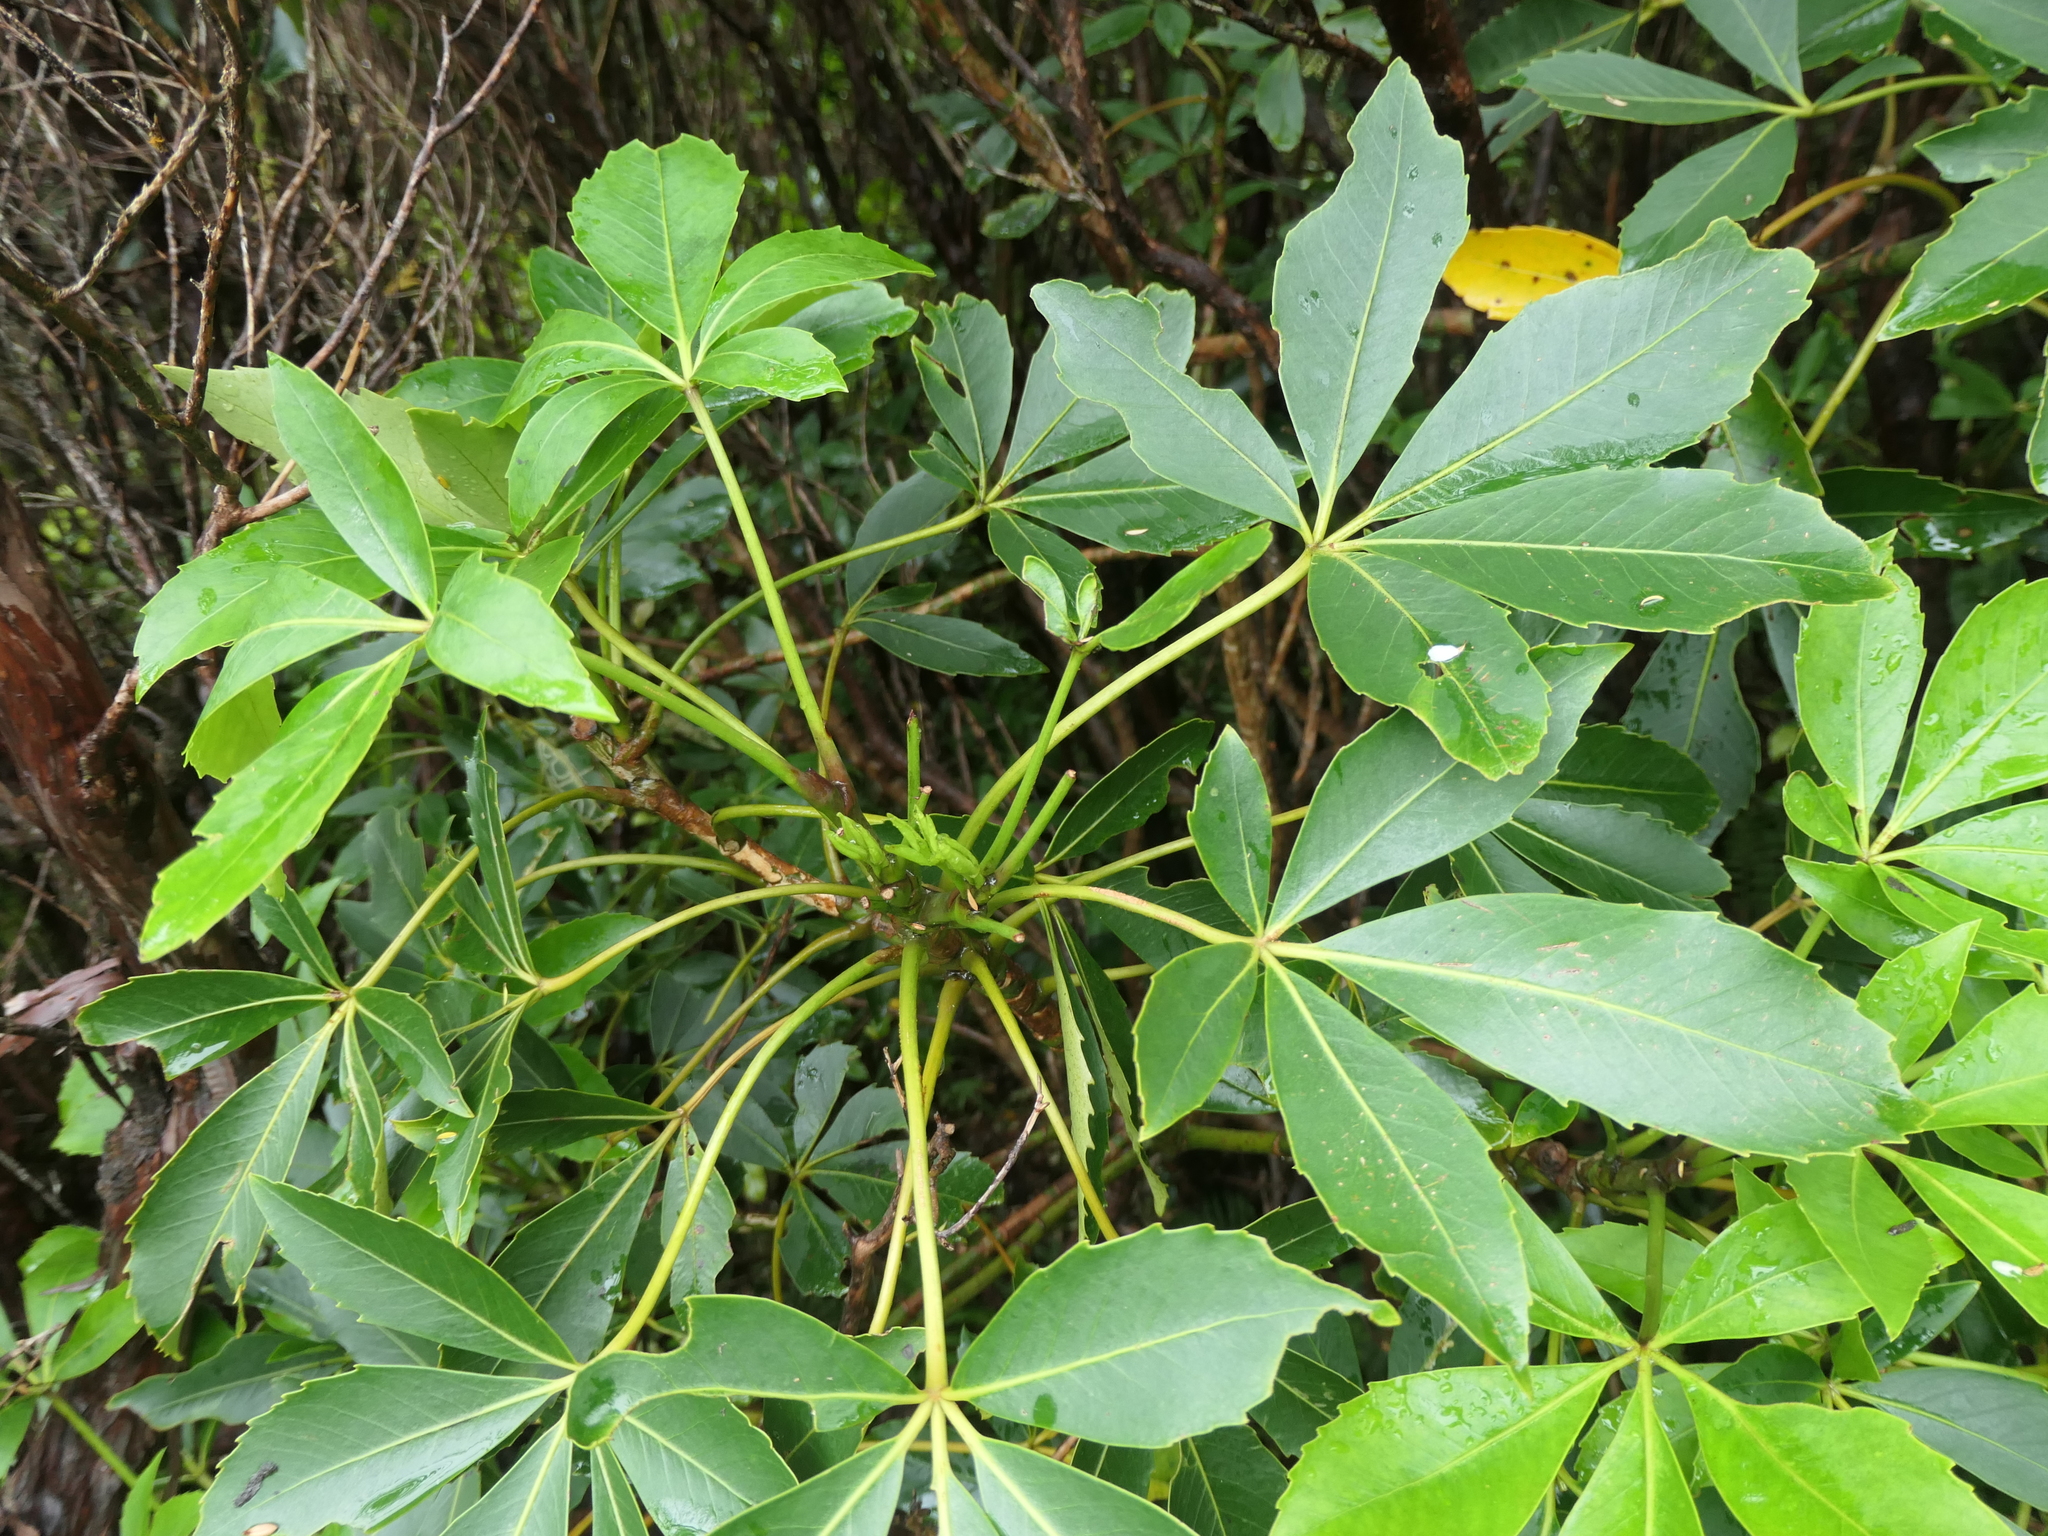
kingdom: Plantae
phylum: Tracheophyta
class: Magnoliopsida
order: Apiales
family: Araliaceae
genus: Neopanax
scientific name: Neopanax colensoi
